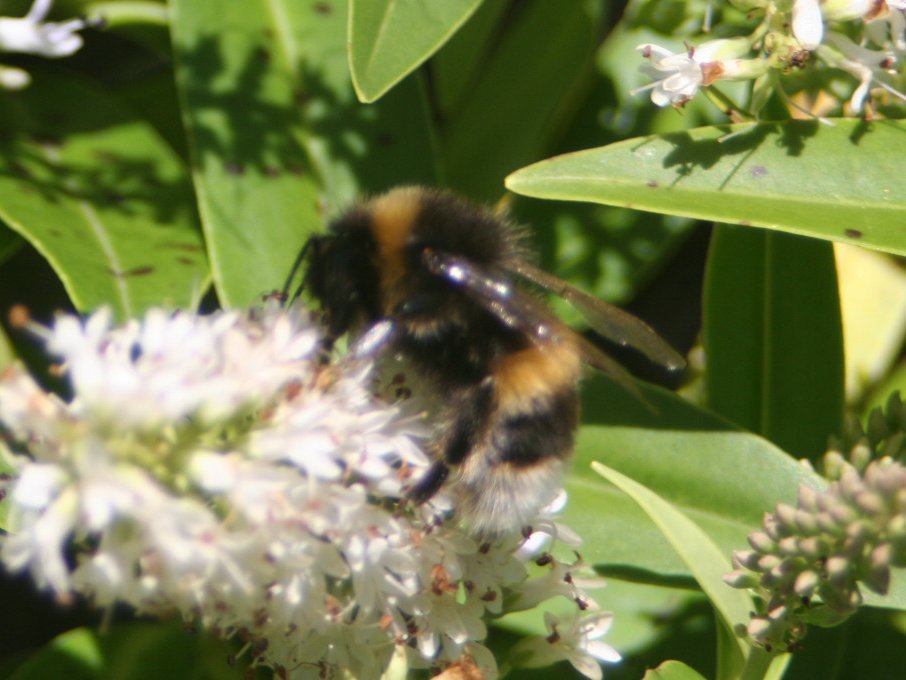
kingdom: Animalia
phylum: Arthropoda
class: Insecta
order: Hymenoptera
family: Apidae
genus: Bombus
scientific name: Bombus terrestris
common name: Buff-tailed bumblebee
